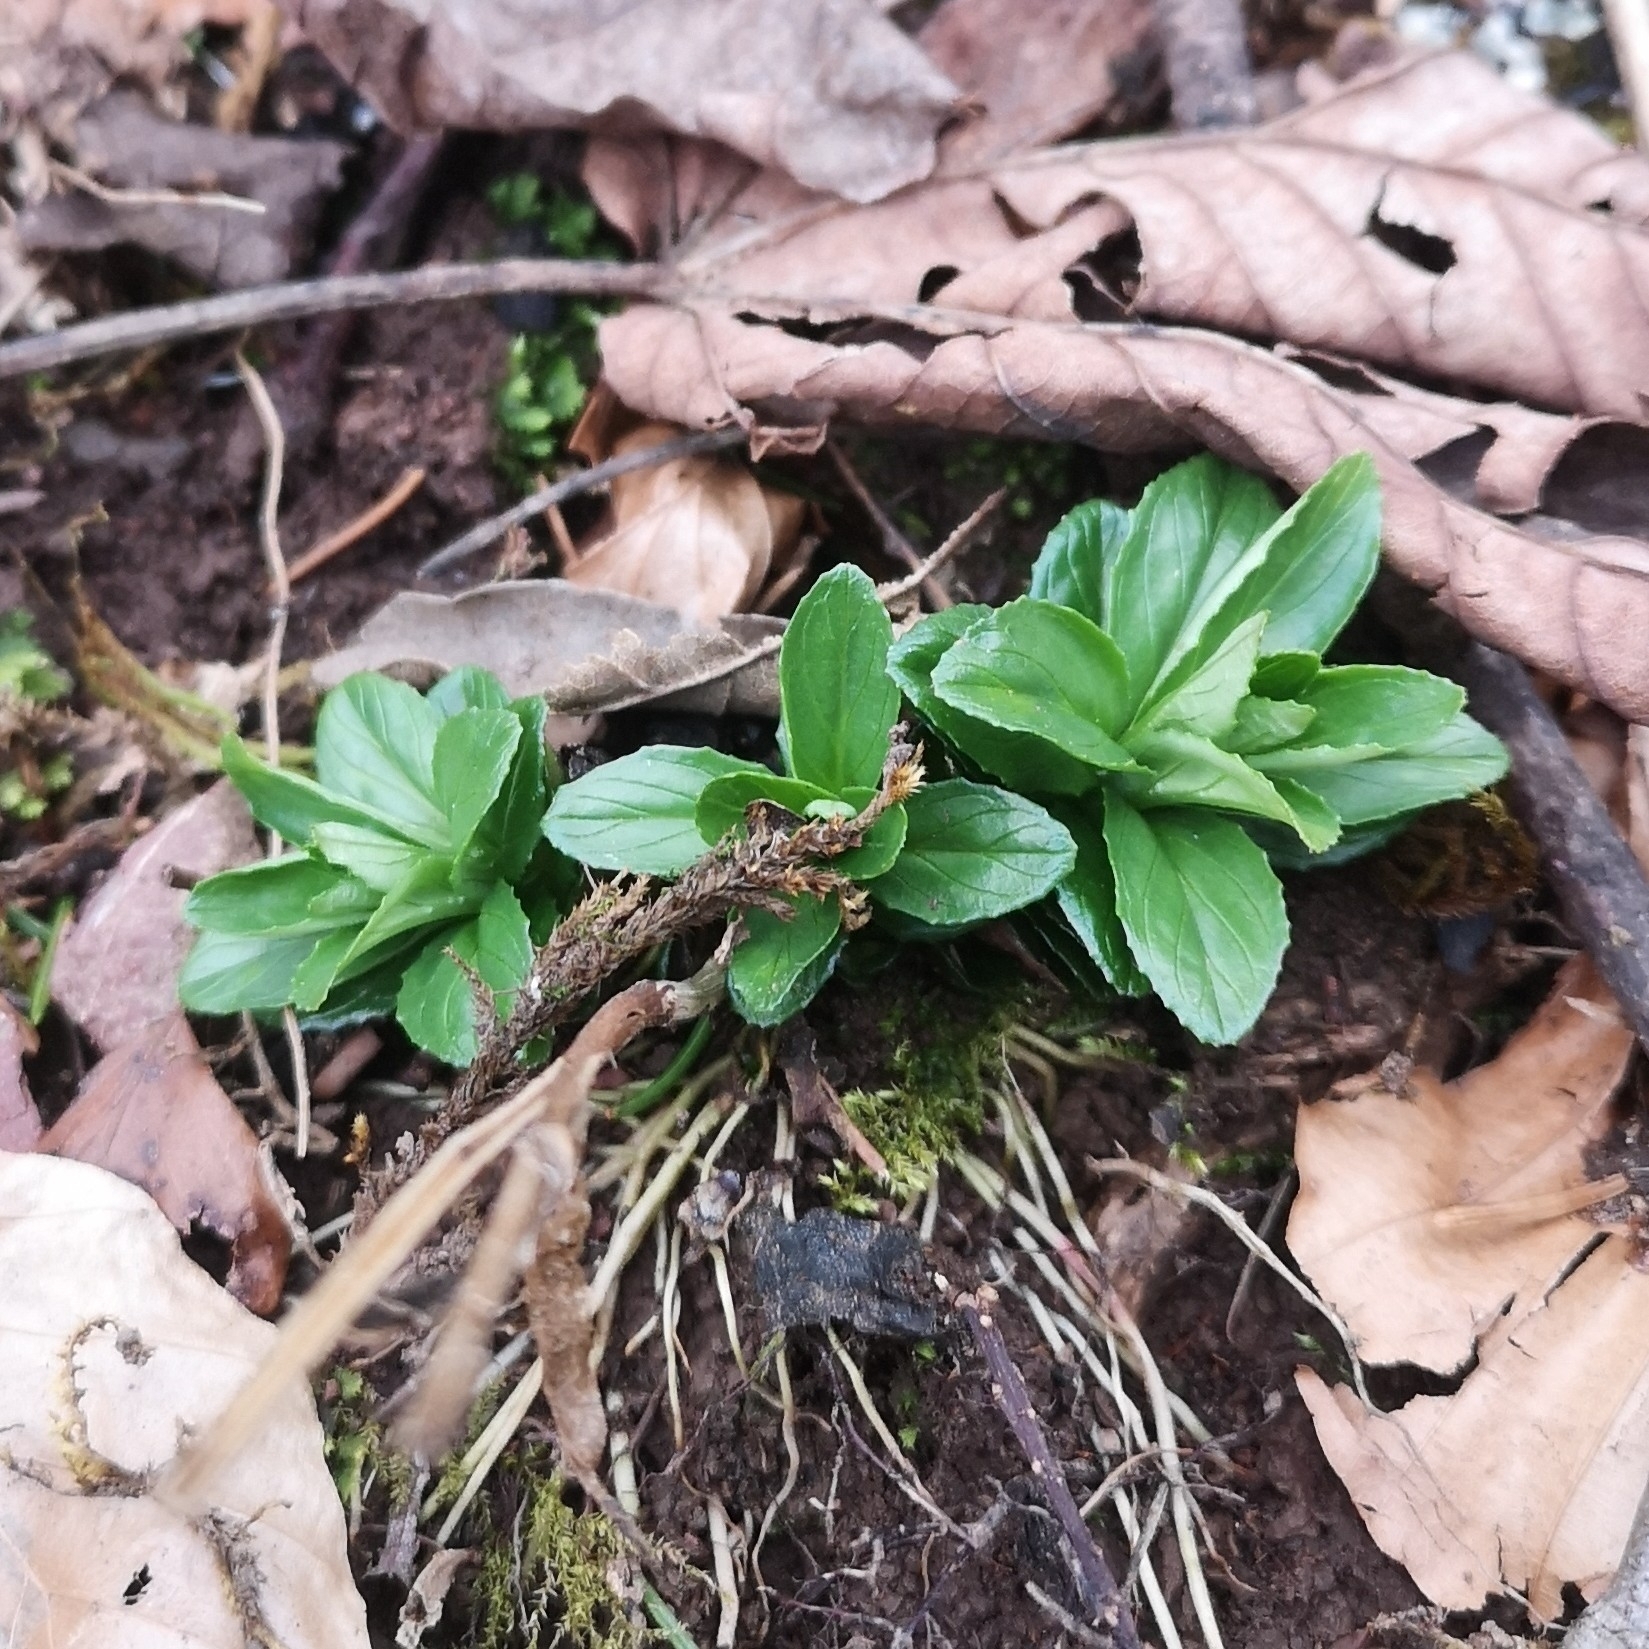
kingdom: Plantae
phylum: Tracheophyta
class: Magnoliopsida
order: Lamiales
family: Plantaginaceae
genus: Veronica
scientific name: Veronica officinalis
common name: Common speedwell
